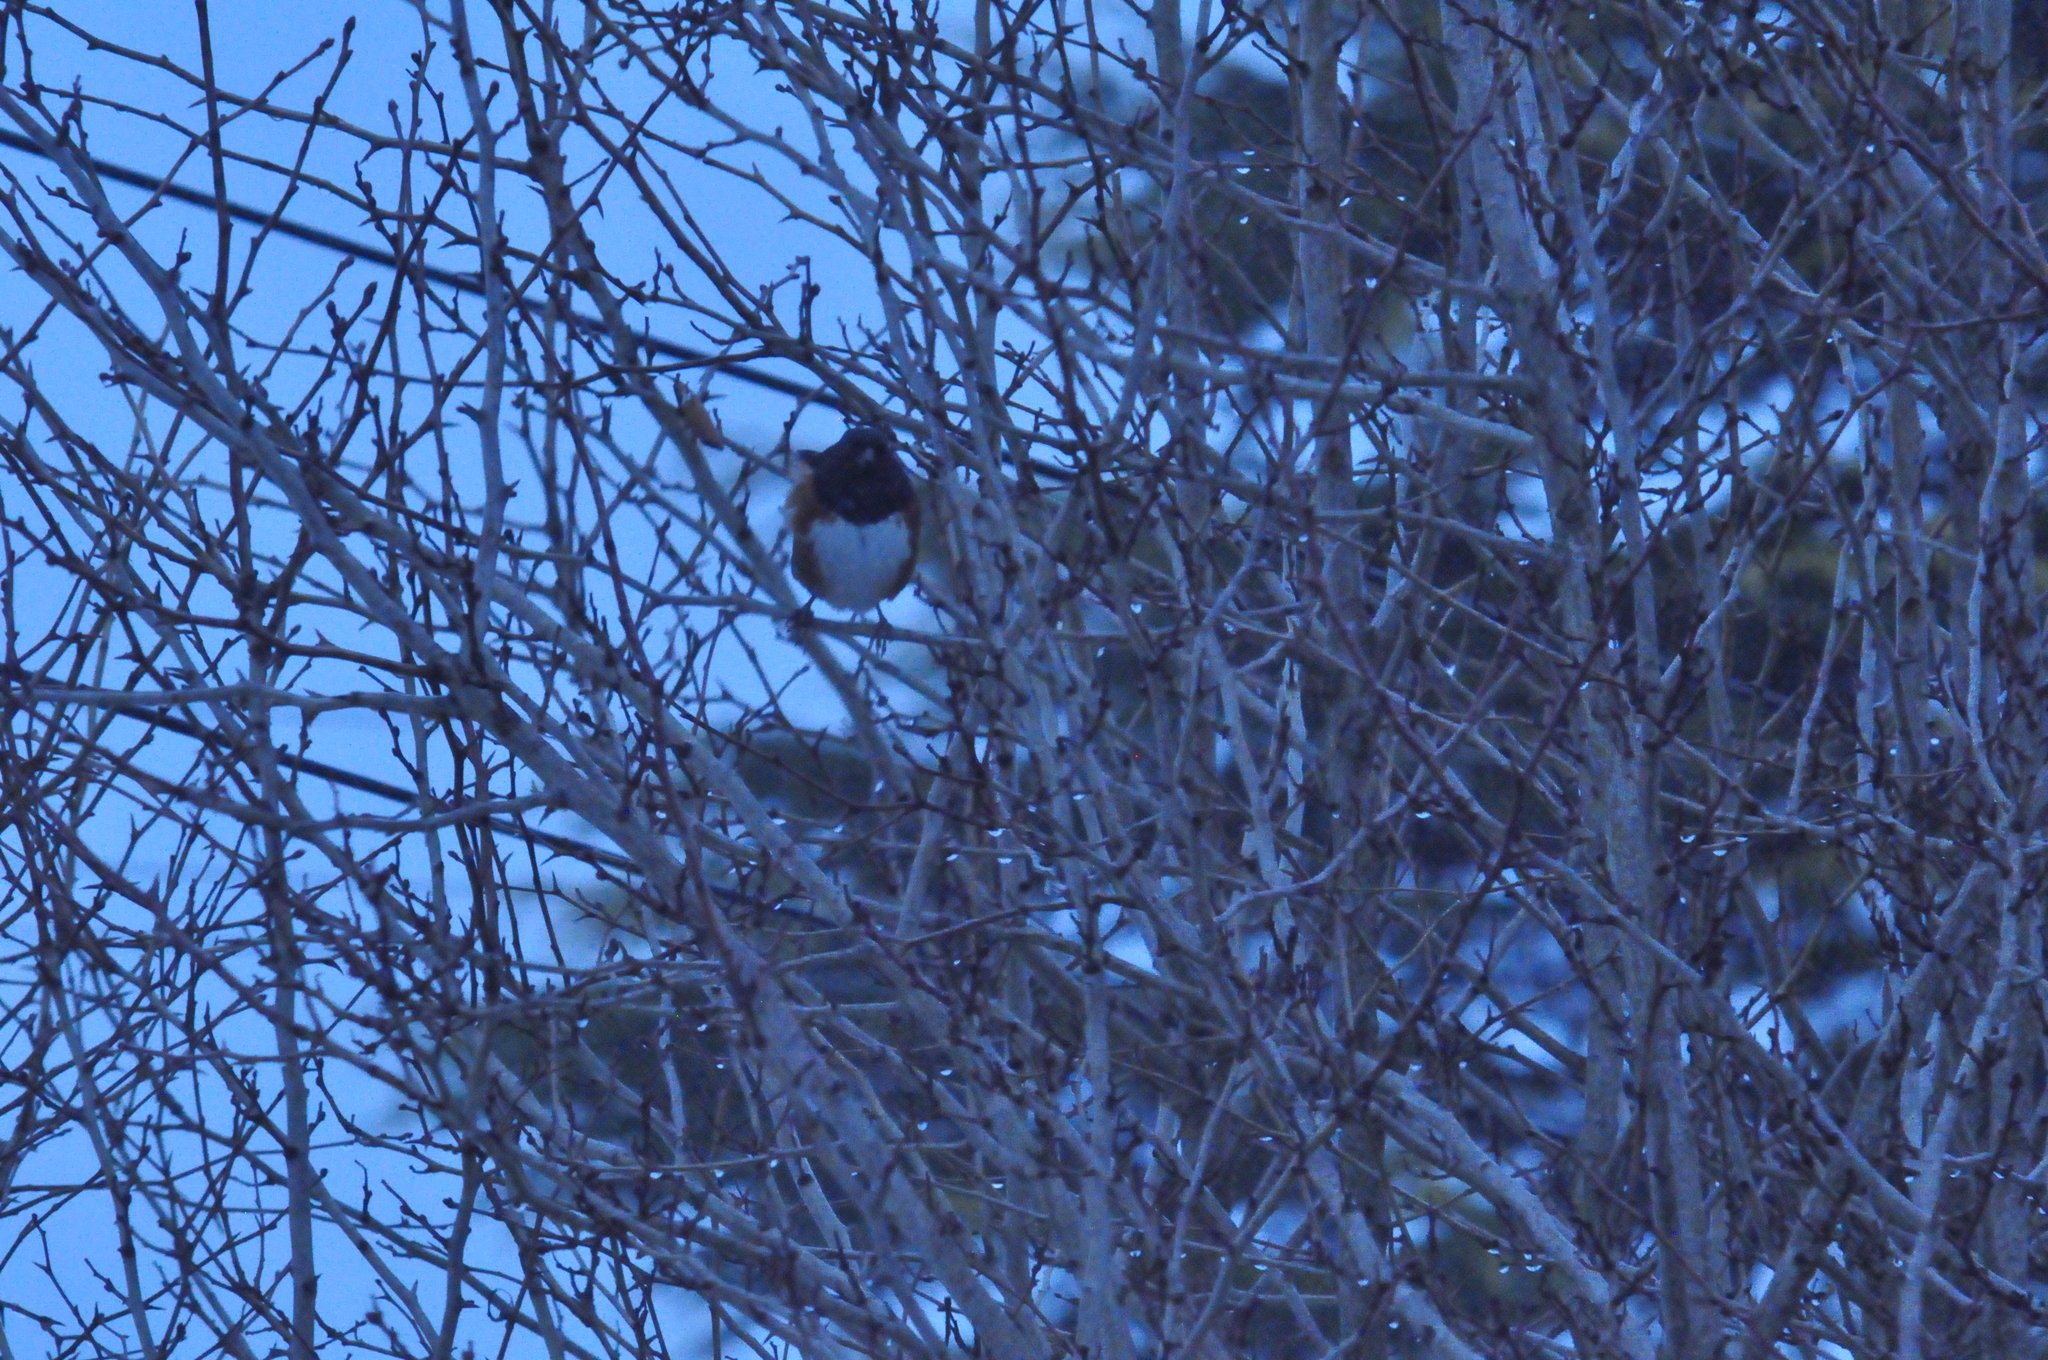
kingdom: Animalia
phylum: Chordata
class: Aves
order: Passeriformes
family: Passerellidae
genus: Pipilo
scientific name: Pipilo maculatus
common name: Spotted towhee
